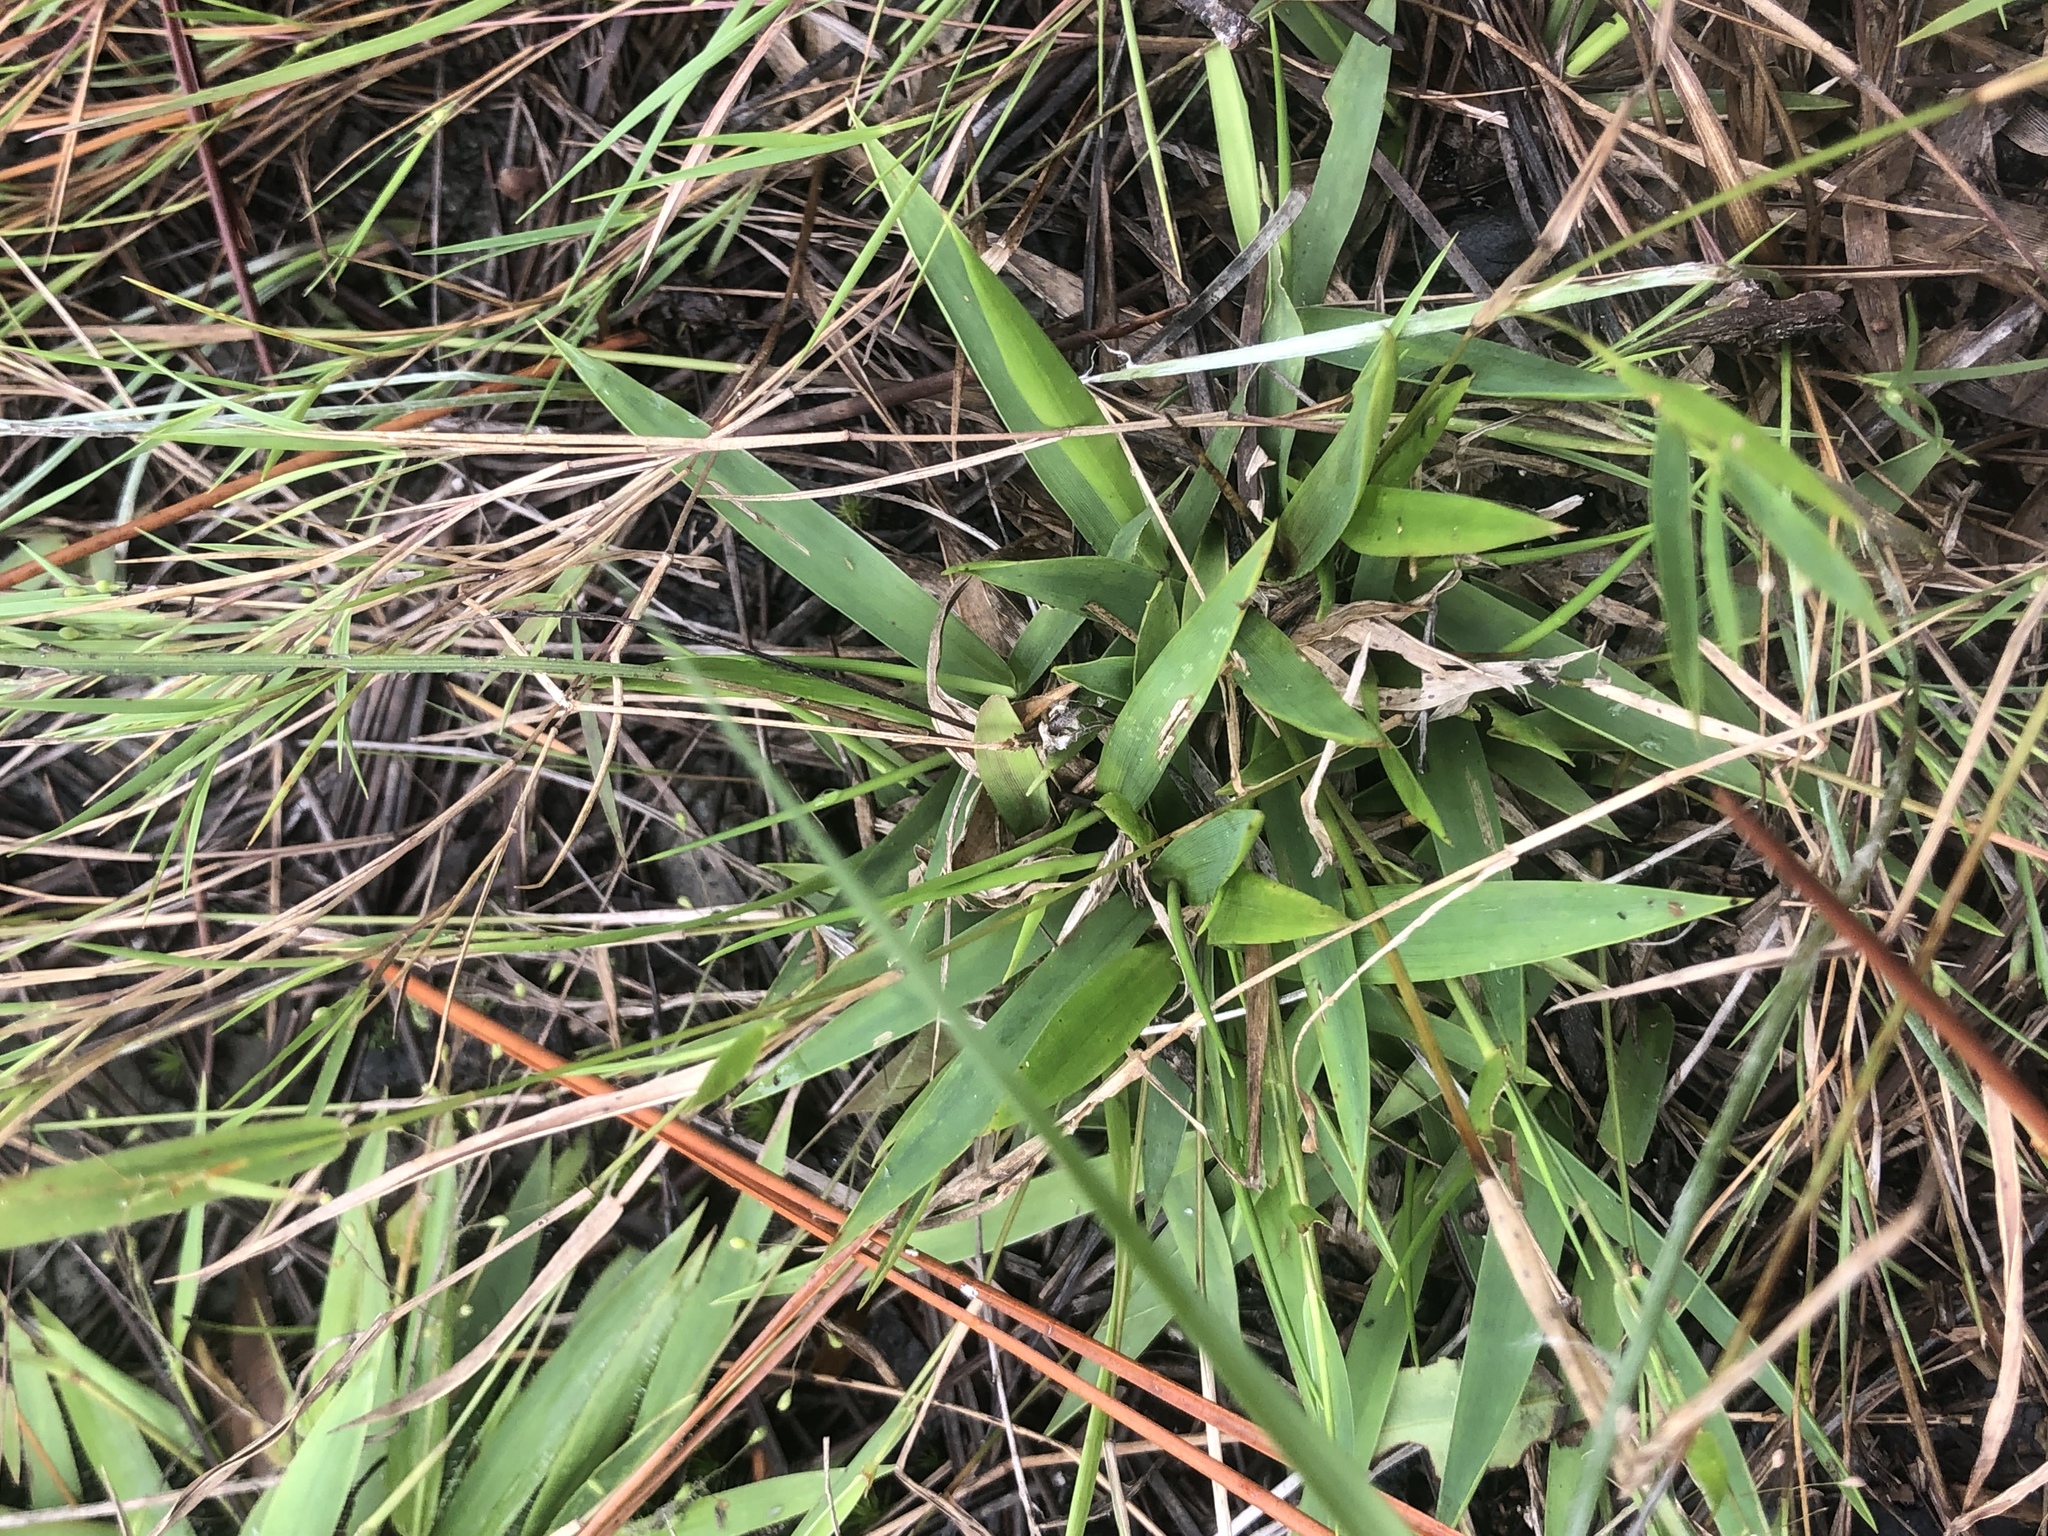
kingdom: Plantae
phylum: Tracheophyta
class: Liliopsida
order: Poales
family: Poaceae
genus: Dichanthelium
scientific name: Dichanthelium tenue
